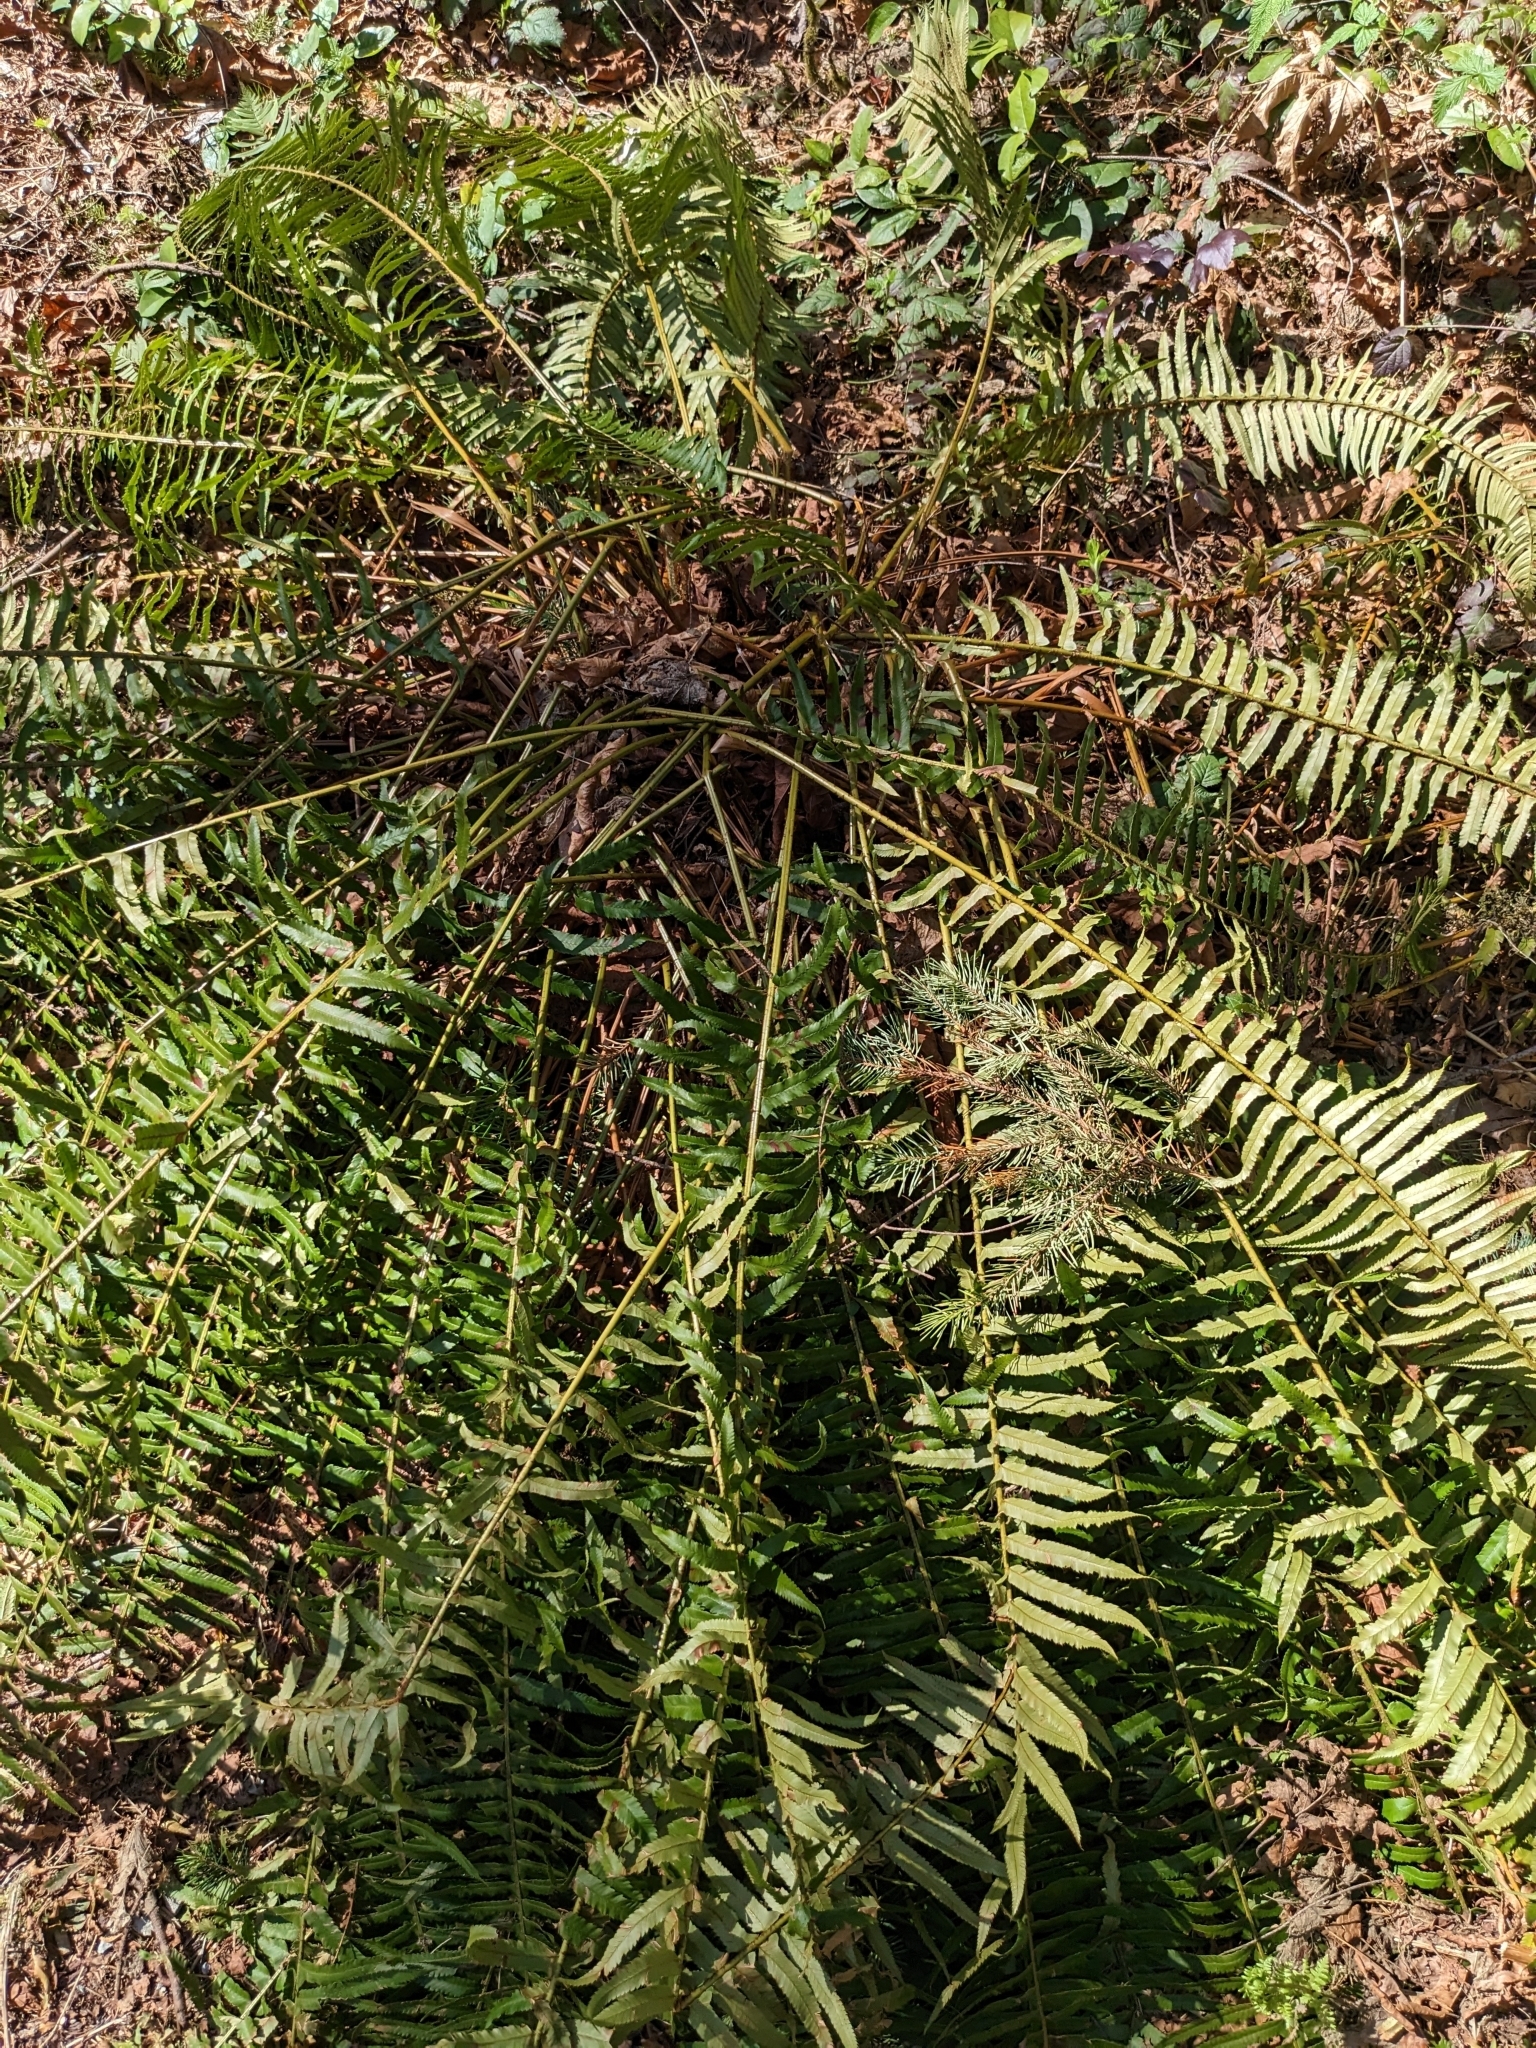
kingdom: Plantae
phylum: Tracheophyta
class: Polypodiopsida
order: Polypodiales
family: Dryopteridaceae
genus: Polystichum
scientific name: Polystichum munitum
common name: Western sword-fern
